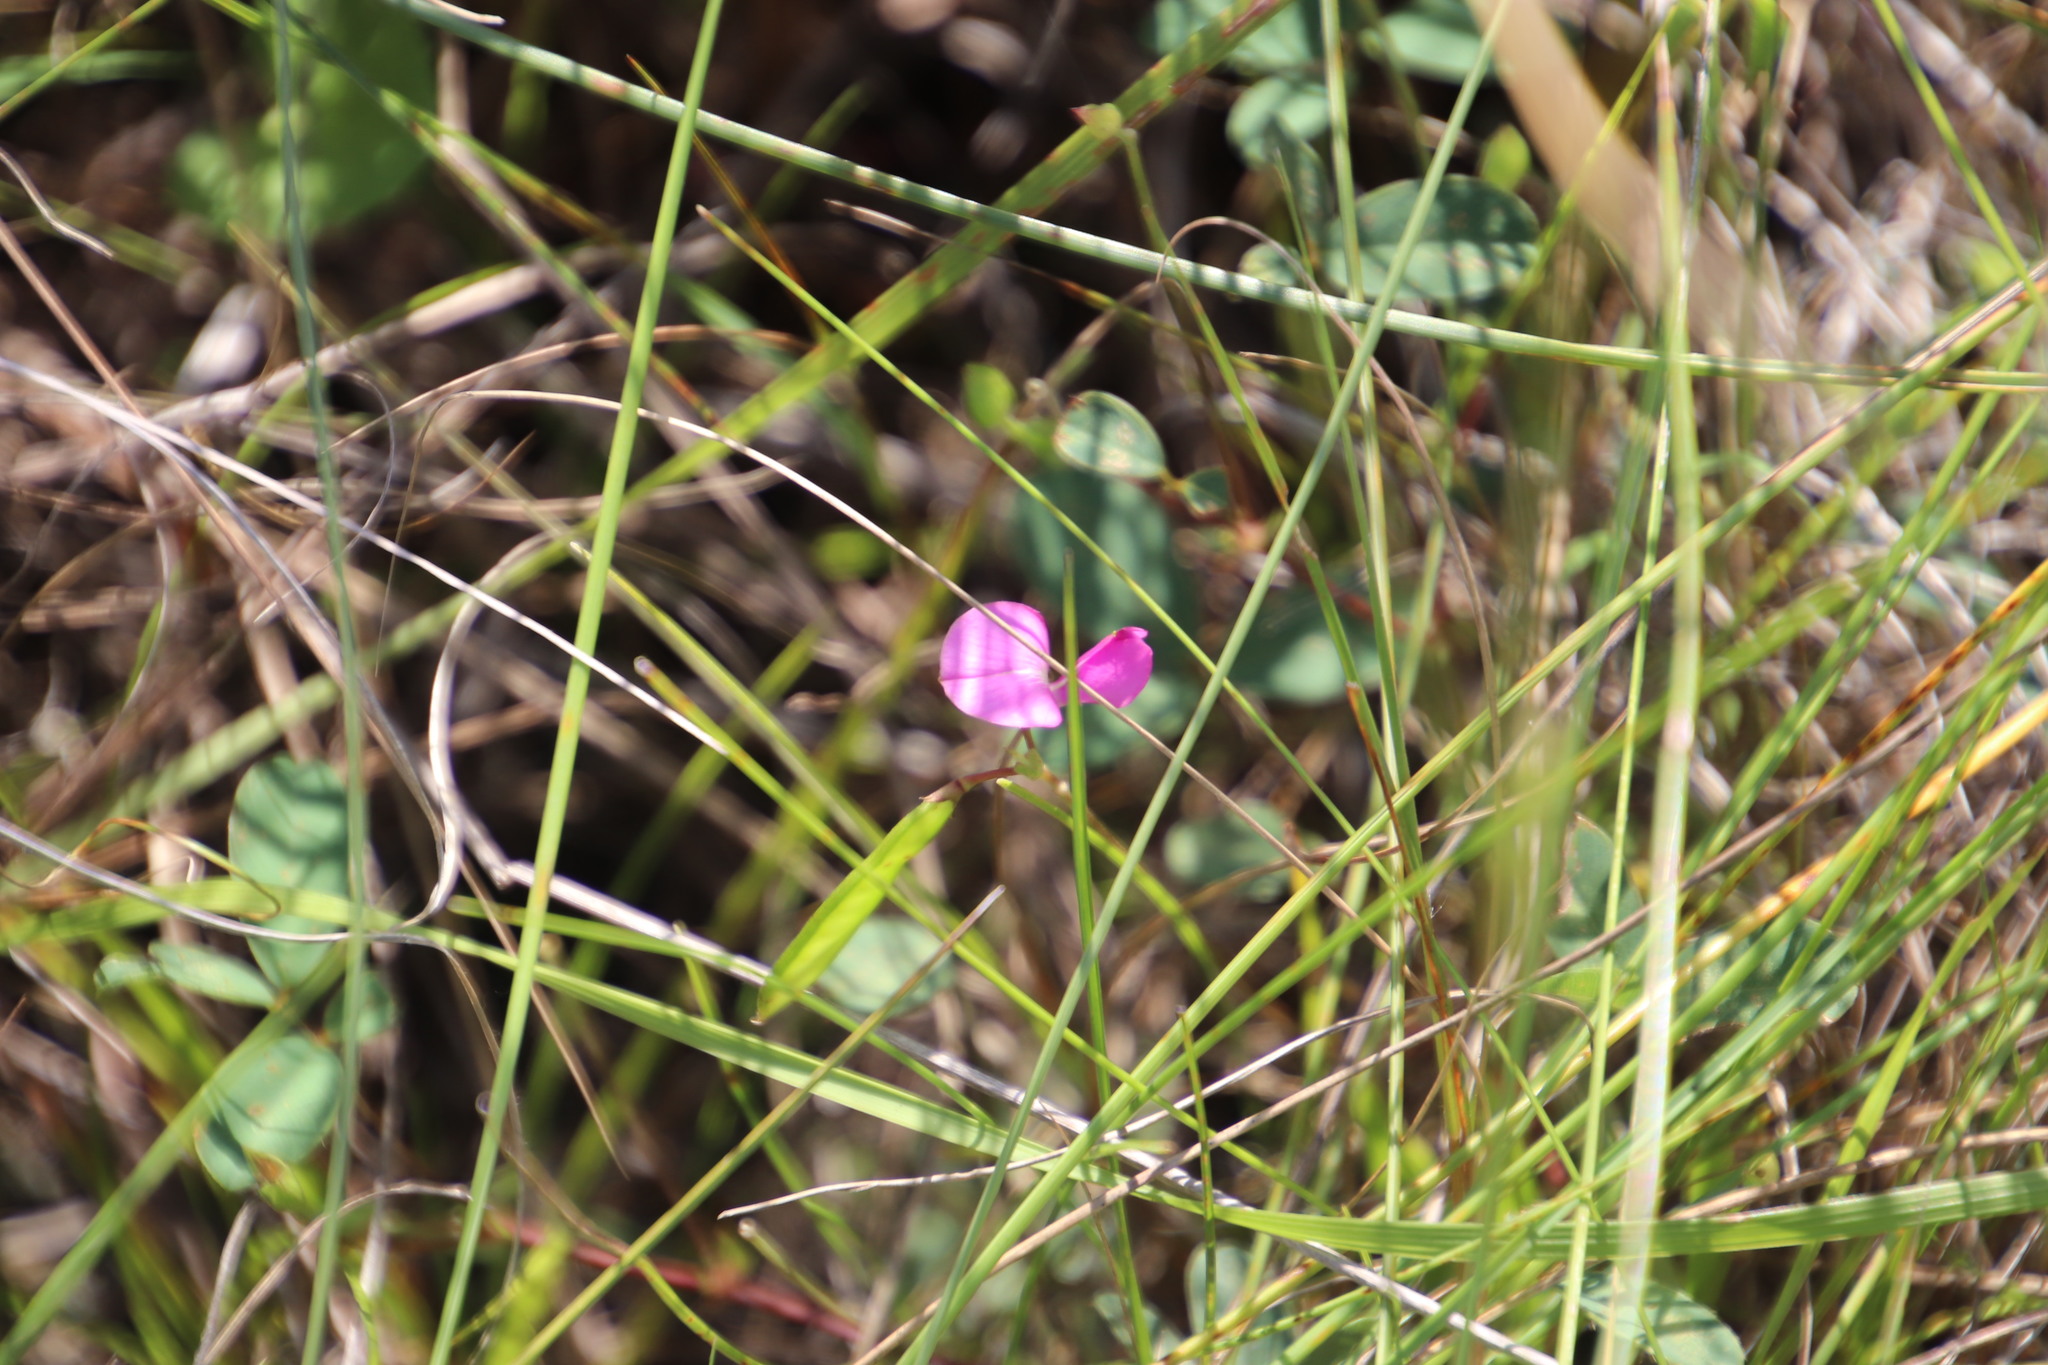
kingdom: Plantae
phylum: Tracheophyta
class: Magnoliopsida
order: Fabales
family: Fabaceae
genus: Tephrosia
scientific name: Tephrosia macropoda
